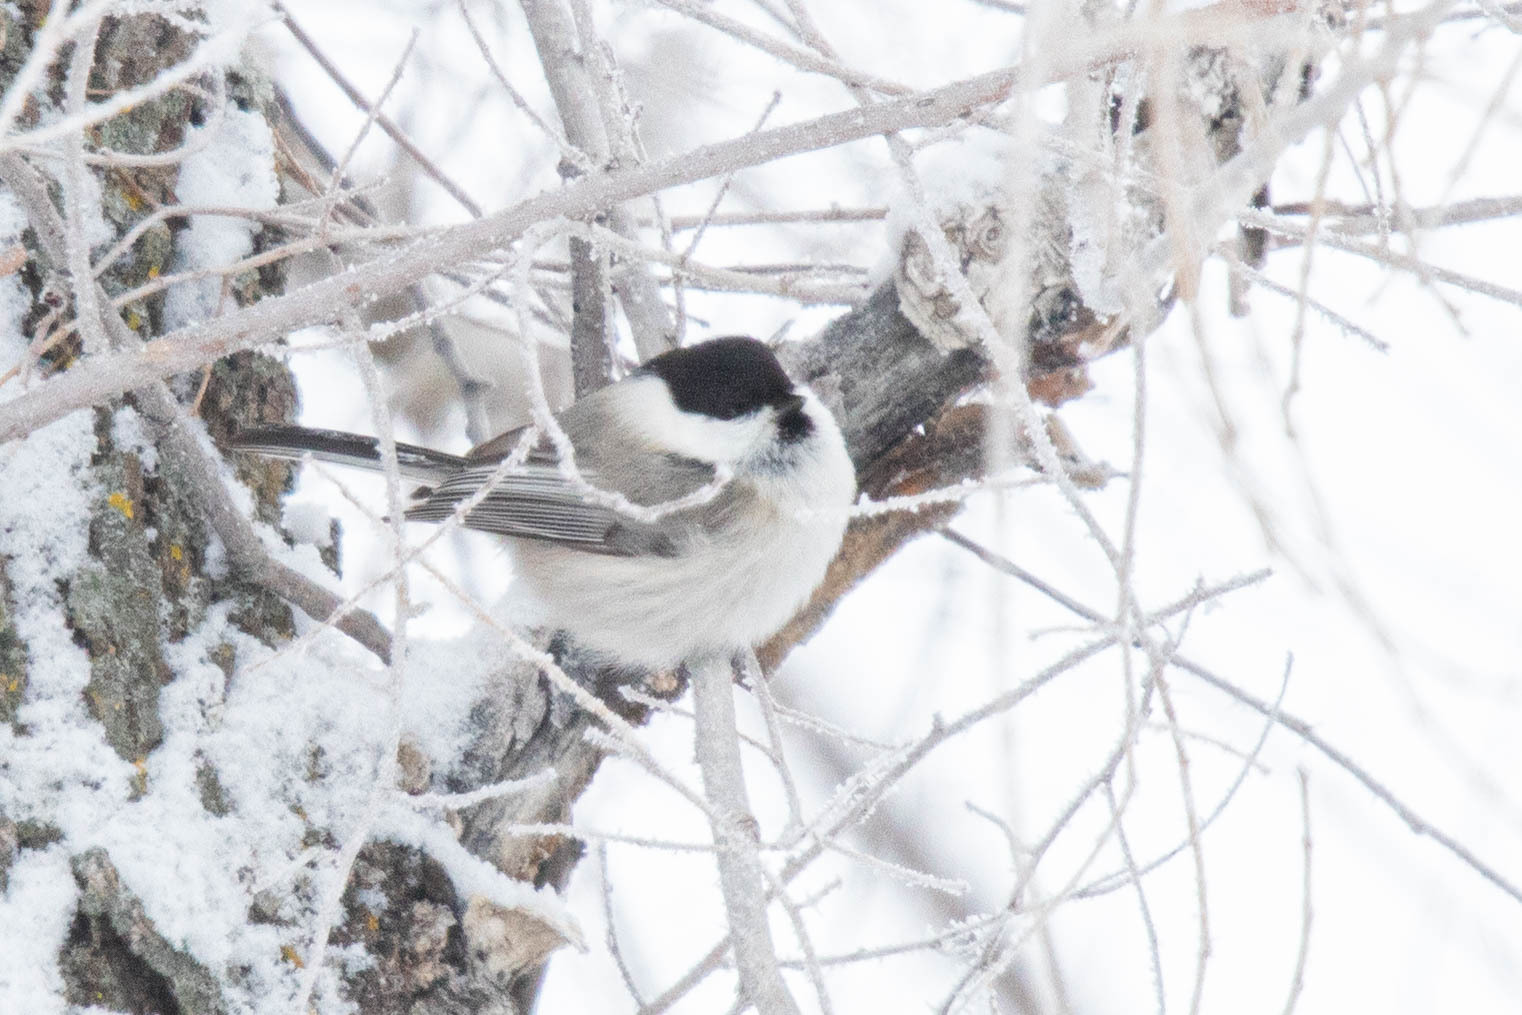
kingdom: Animalia
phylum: Chordata
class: Aves
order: Passeriformes
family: Paridae
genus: Poecile
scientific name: Poecile montanus
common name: Willow tit
